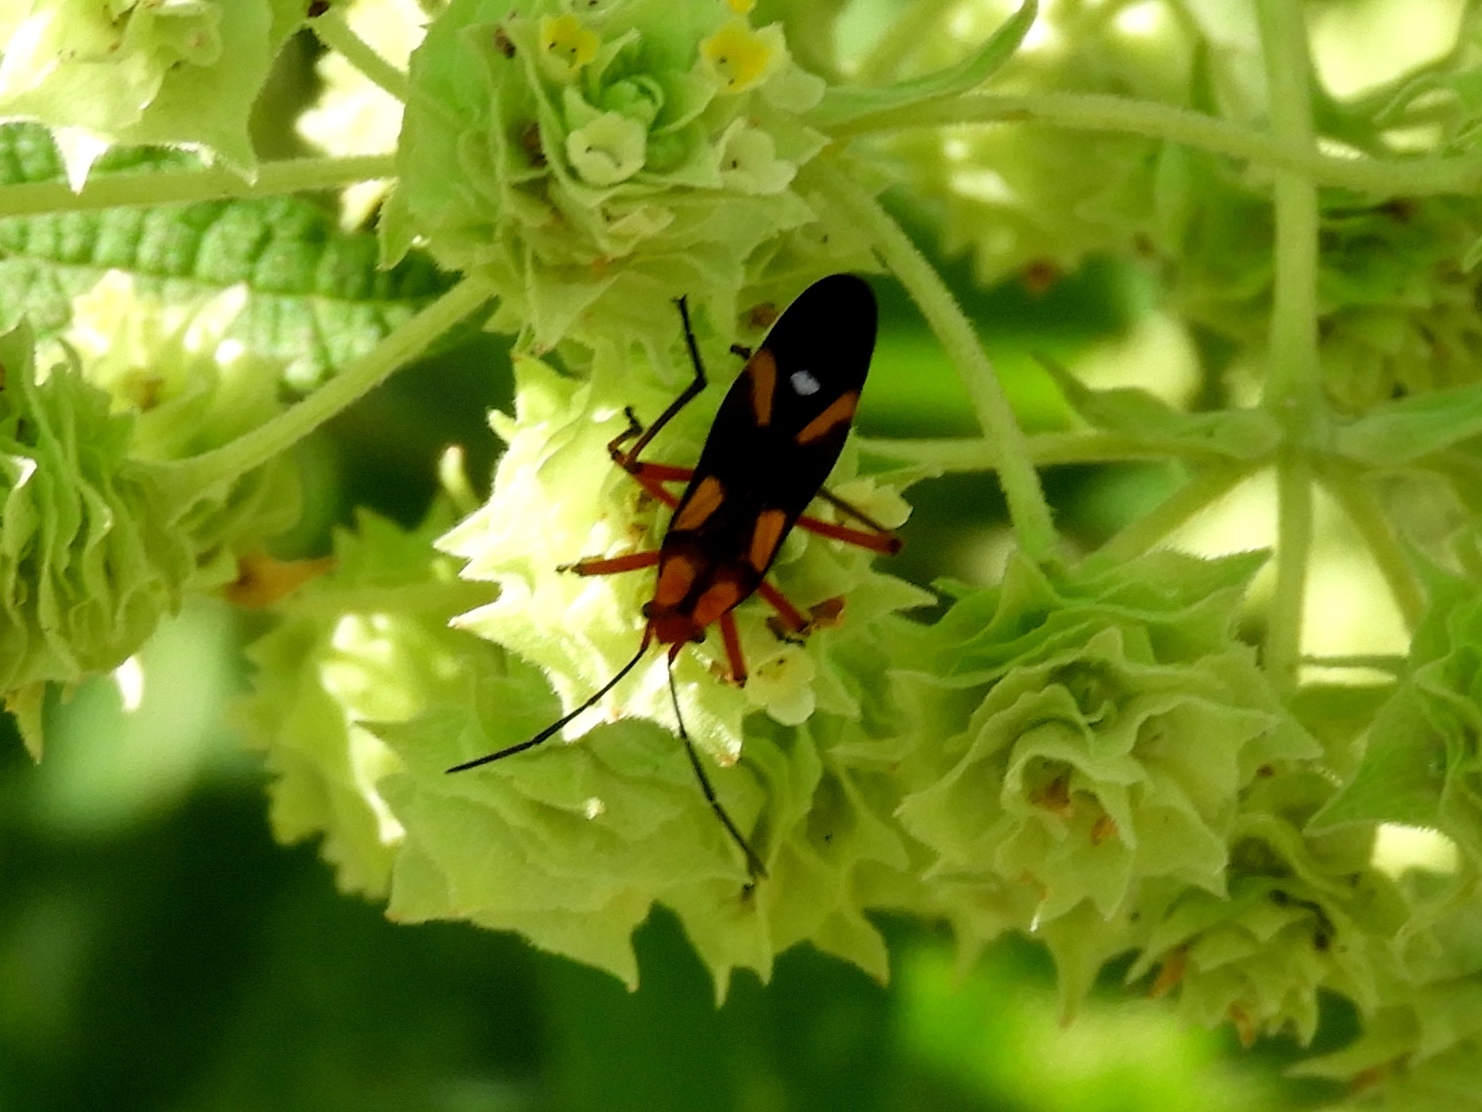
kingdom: Animalia
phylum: Arthropoda
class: Insecta
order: Hemiptera
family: Lygaeidae
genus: Oncopeltus
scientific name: Oncopeltus guttaloides
